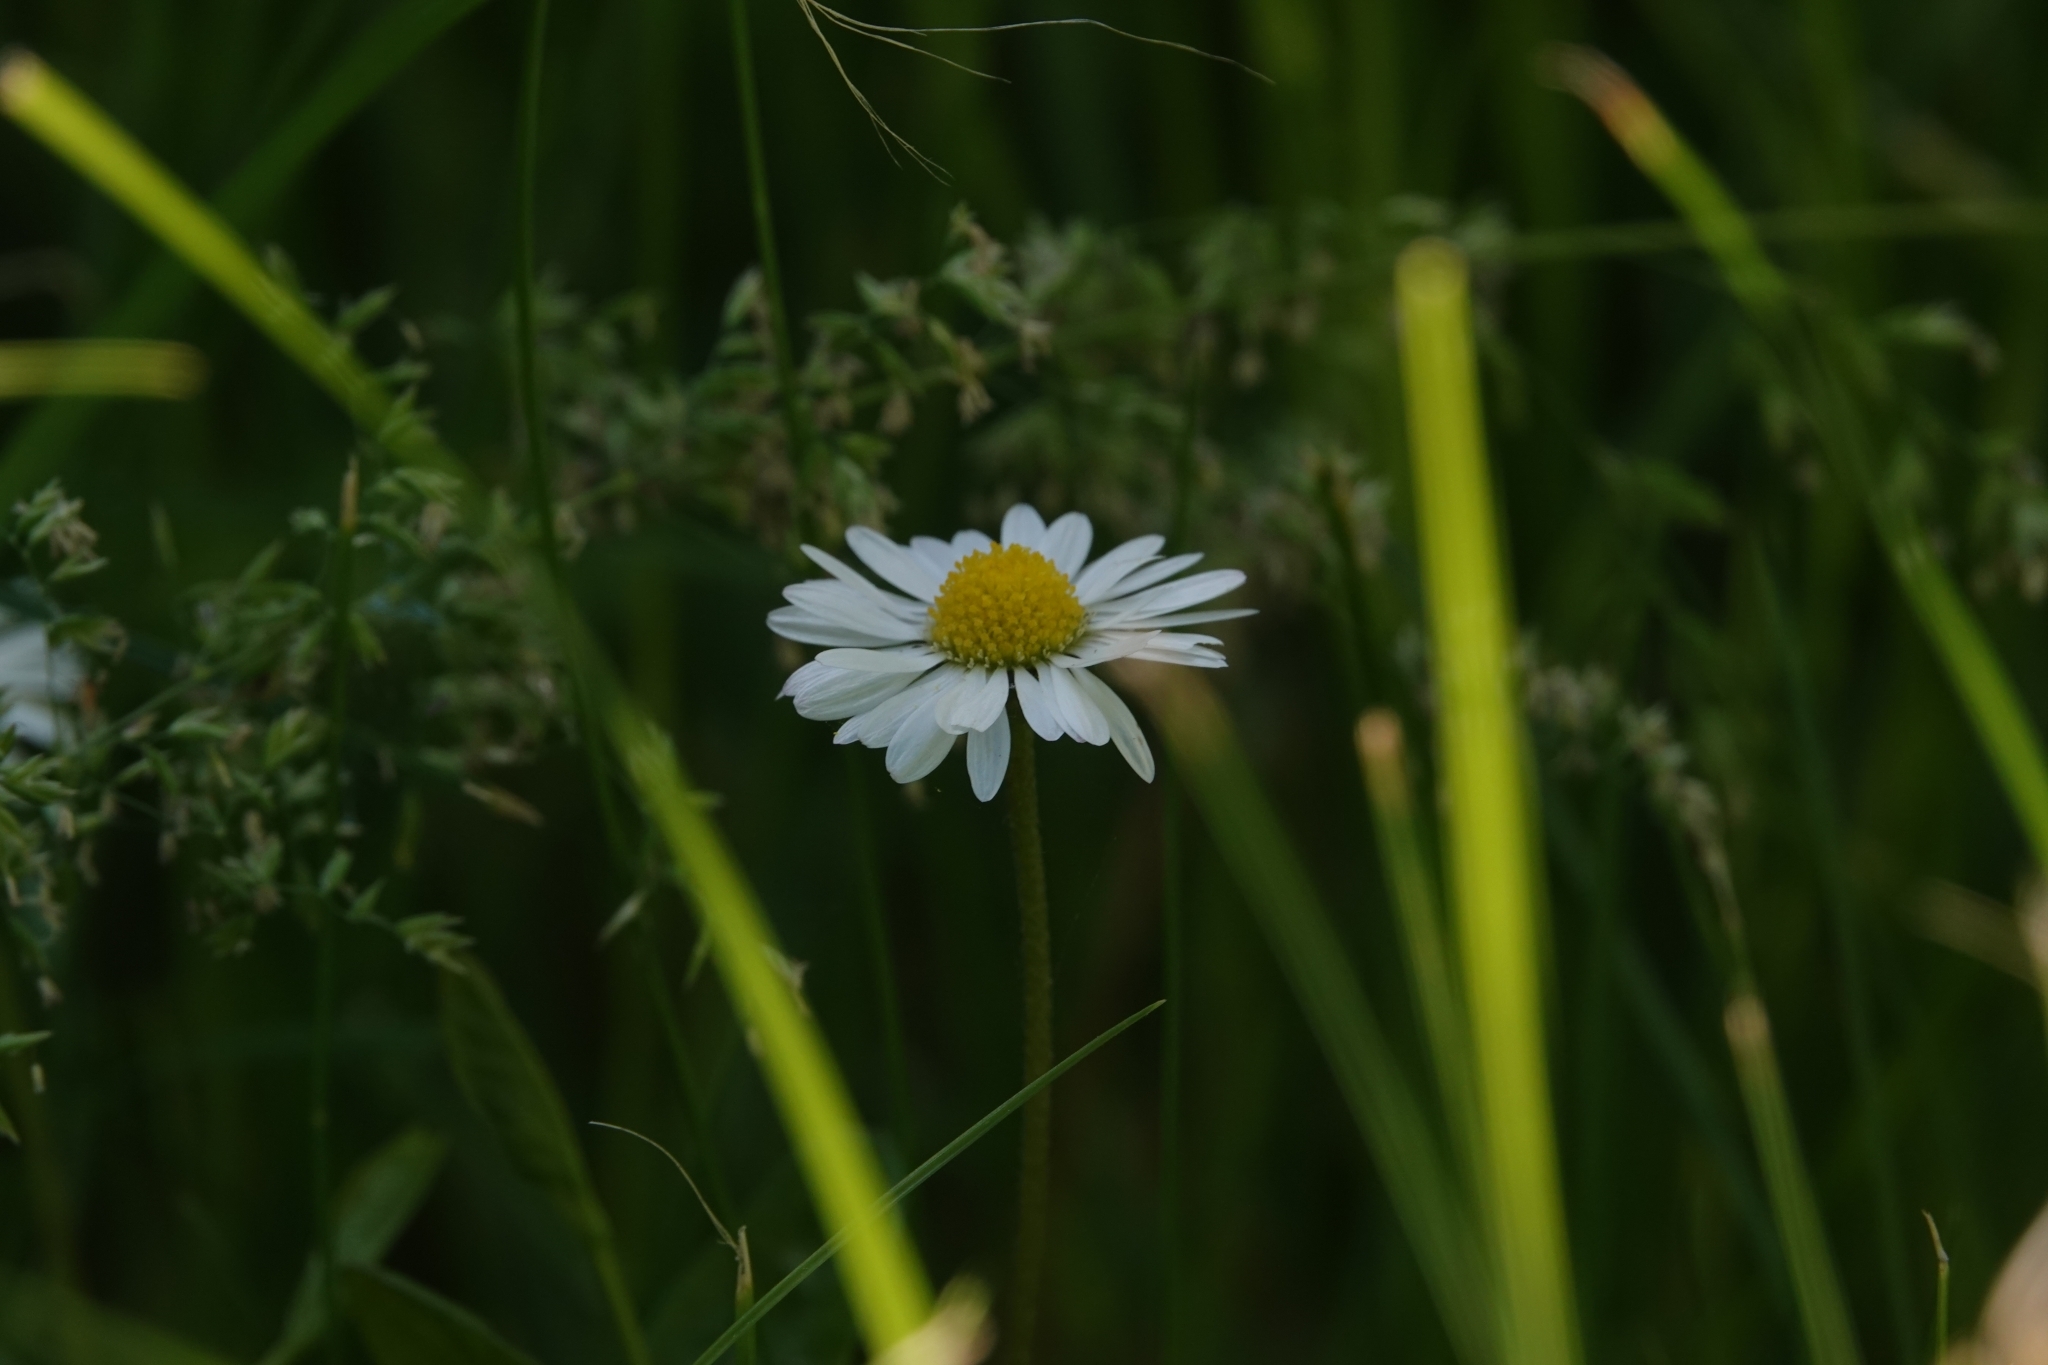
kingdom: Plantae
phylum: Tracheophyta
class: Magnoliopsida
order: Asterales
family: Asteraceae
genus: Bellis
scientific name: Bellis perennis
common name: Lawndaisy
